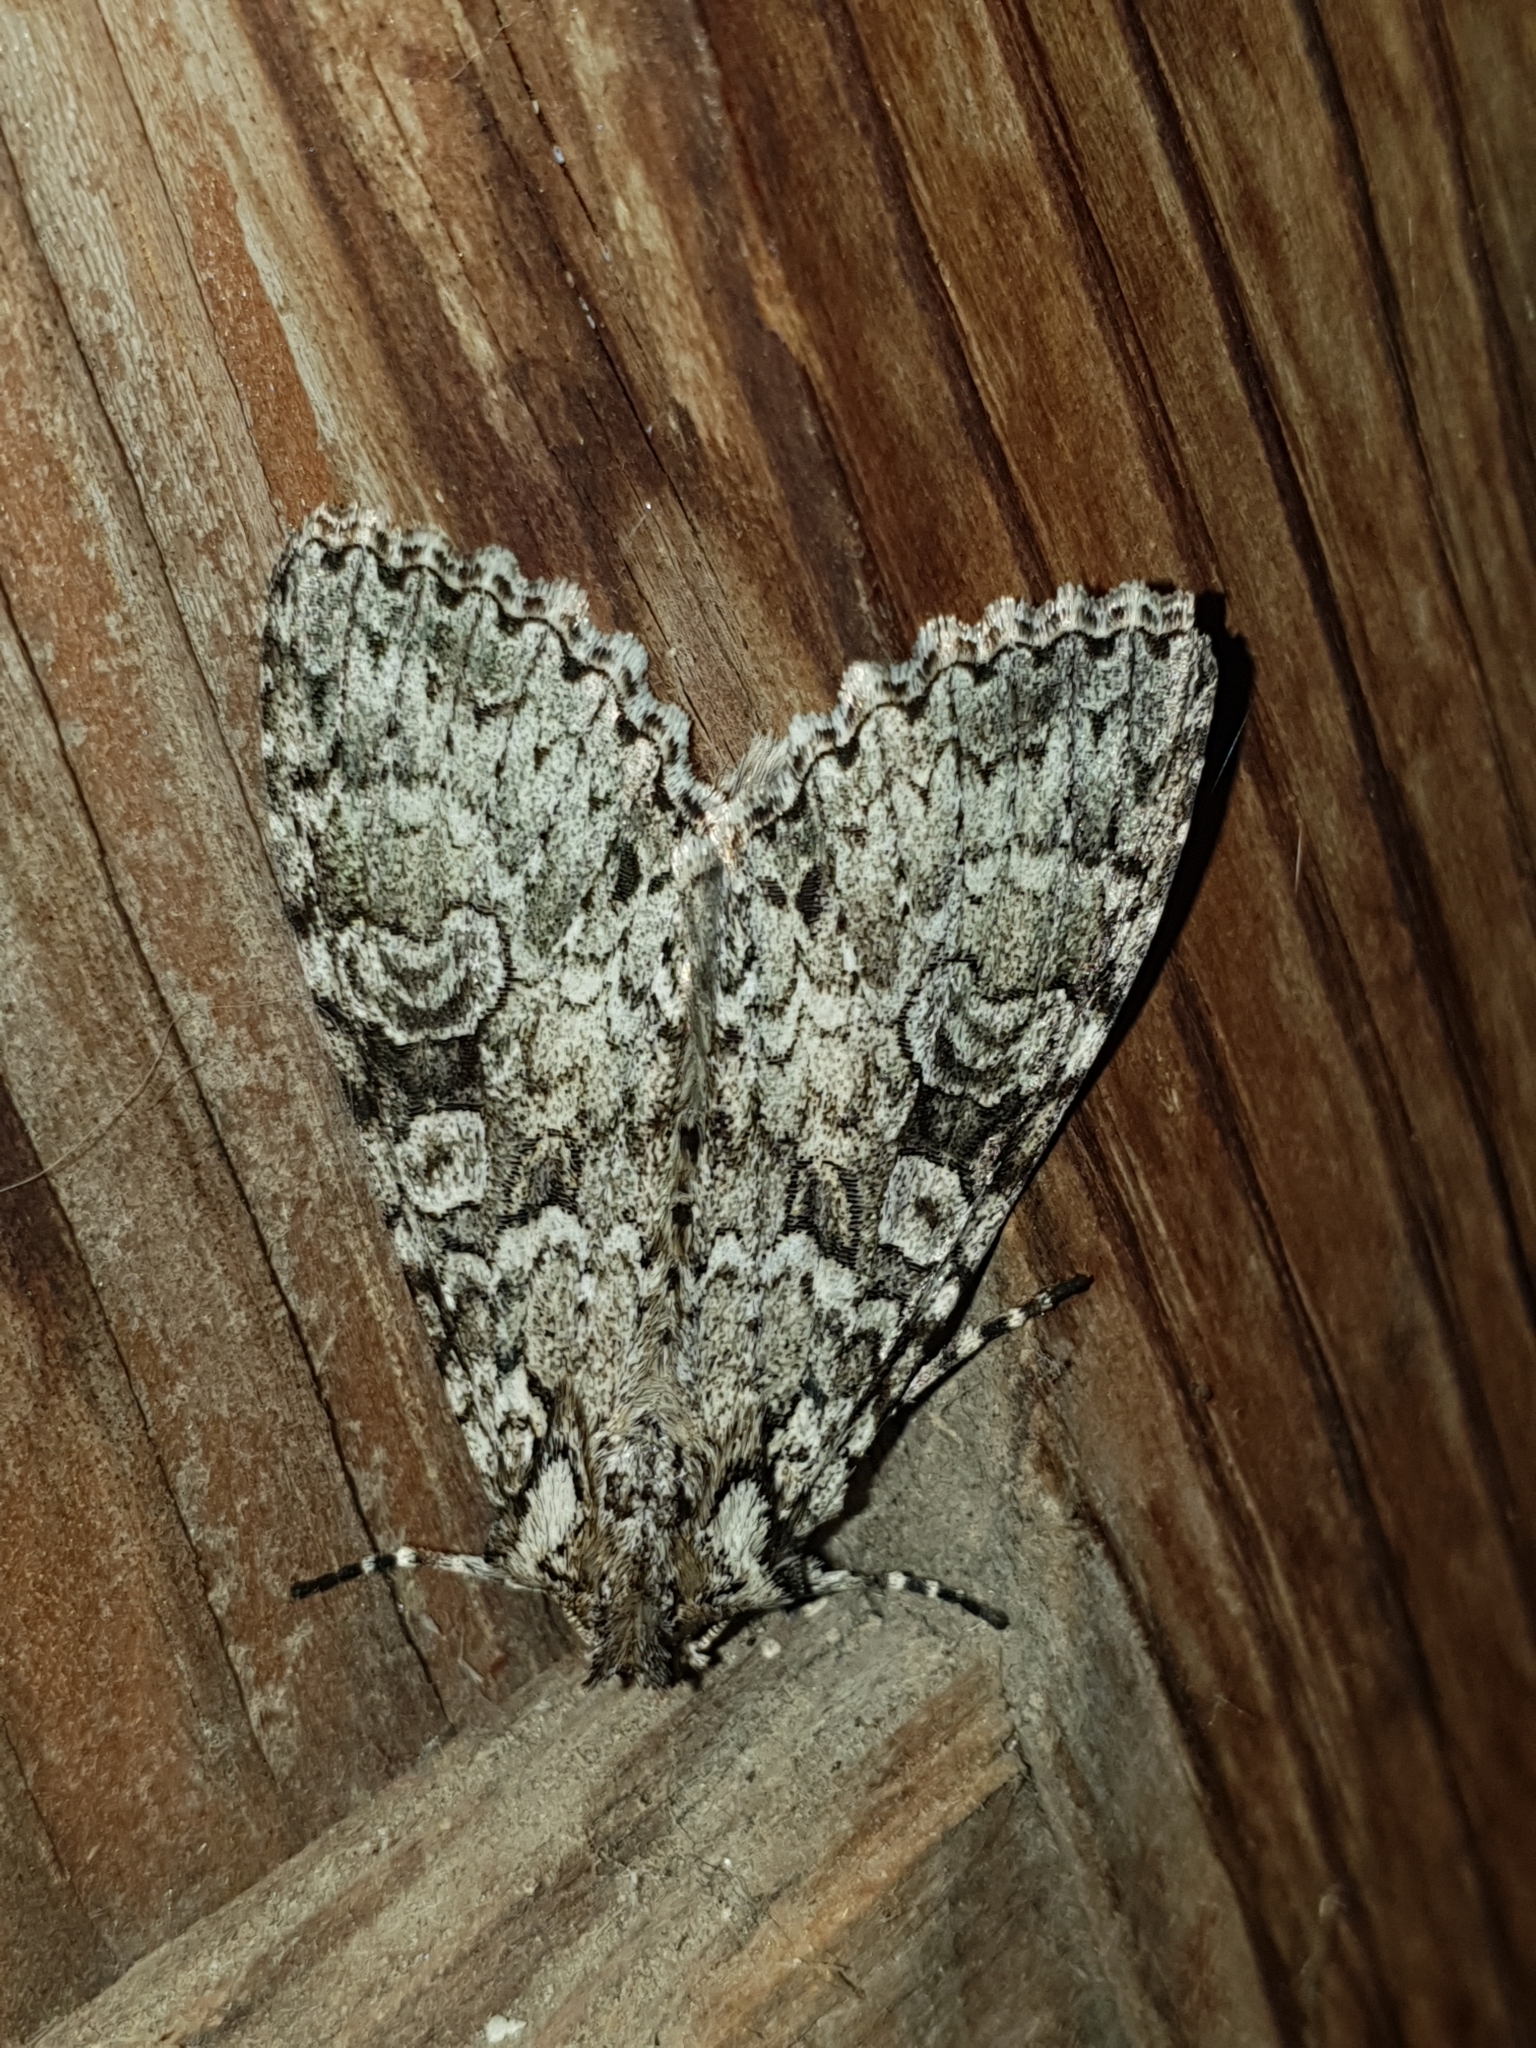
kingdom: Animalia
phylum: Arthropoda
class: Insecta
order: Lepidoptera
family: Noctuidae
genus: Polia
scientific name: Polia nebulosa
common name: Grey arches
